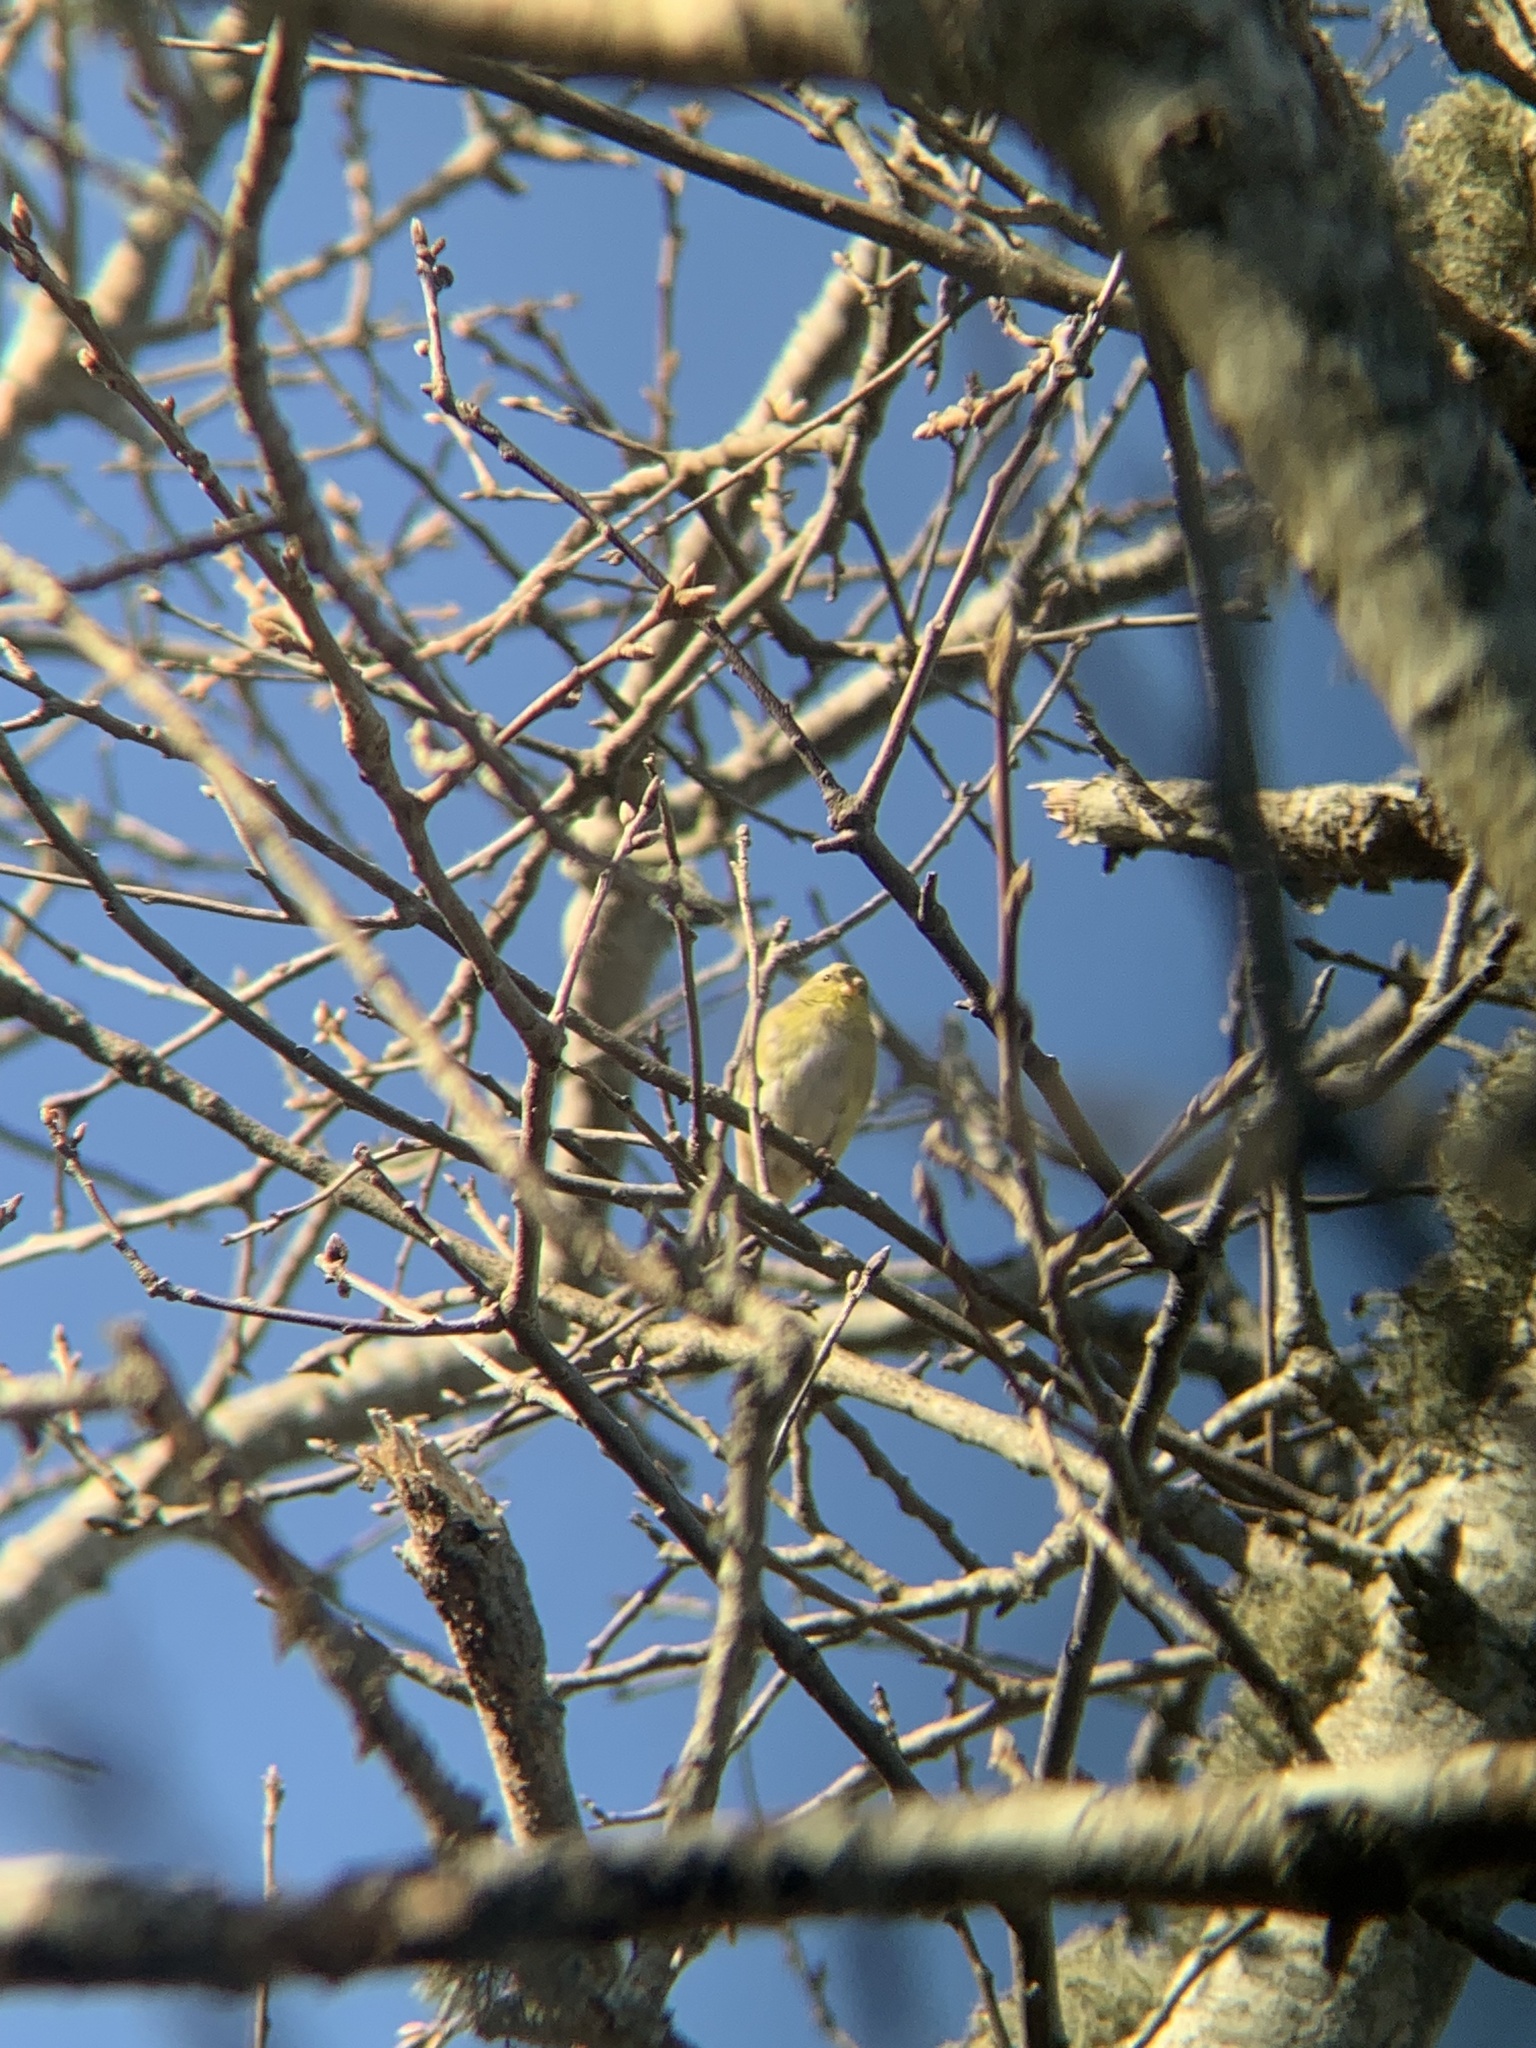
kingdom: Animalia
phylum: Chordata
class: Aves
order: Passeriformes
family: Fringillidae
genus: Spinus
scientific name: Spinus tristis
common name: American goldfinch
